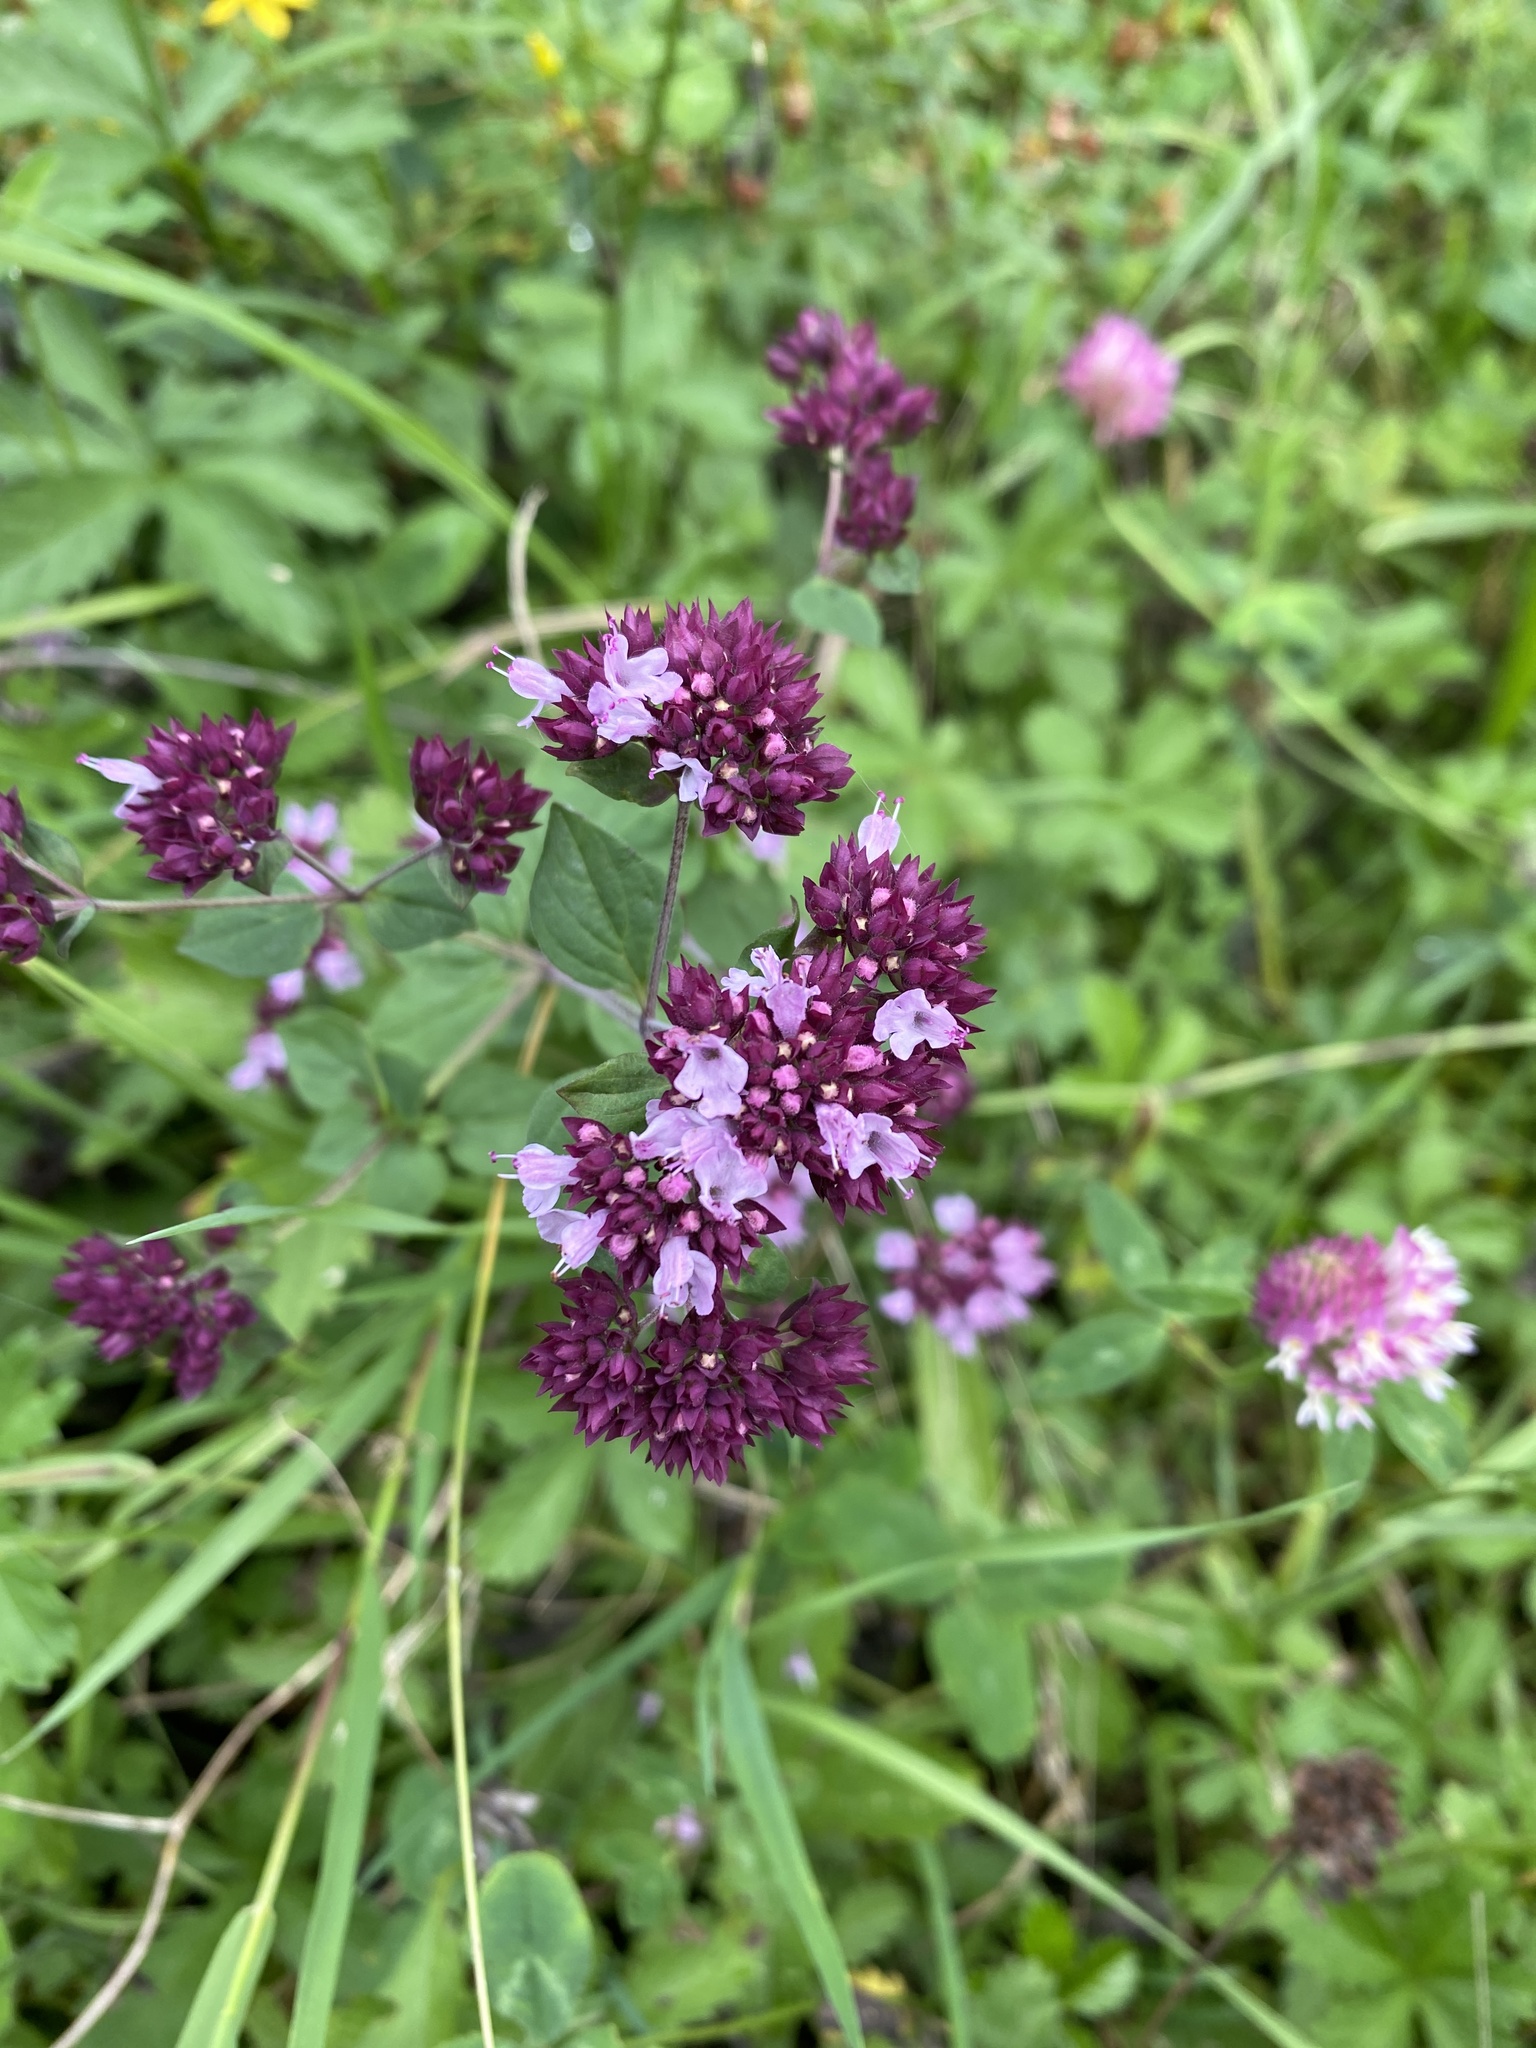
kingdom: Plantae
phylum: Tracheophyta
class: Magnoliopsida
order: Lamiales
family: Lamiaceae
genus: Origanum
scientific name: Origanum vulgare
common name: Wild marjoram
